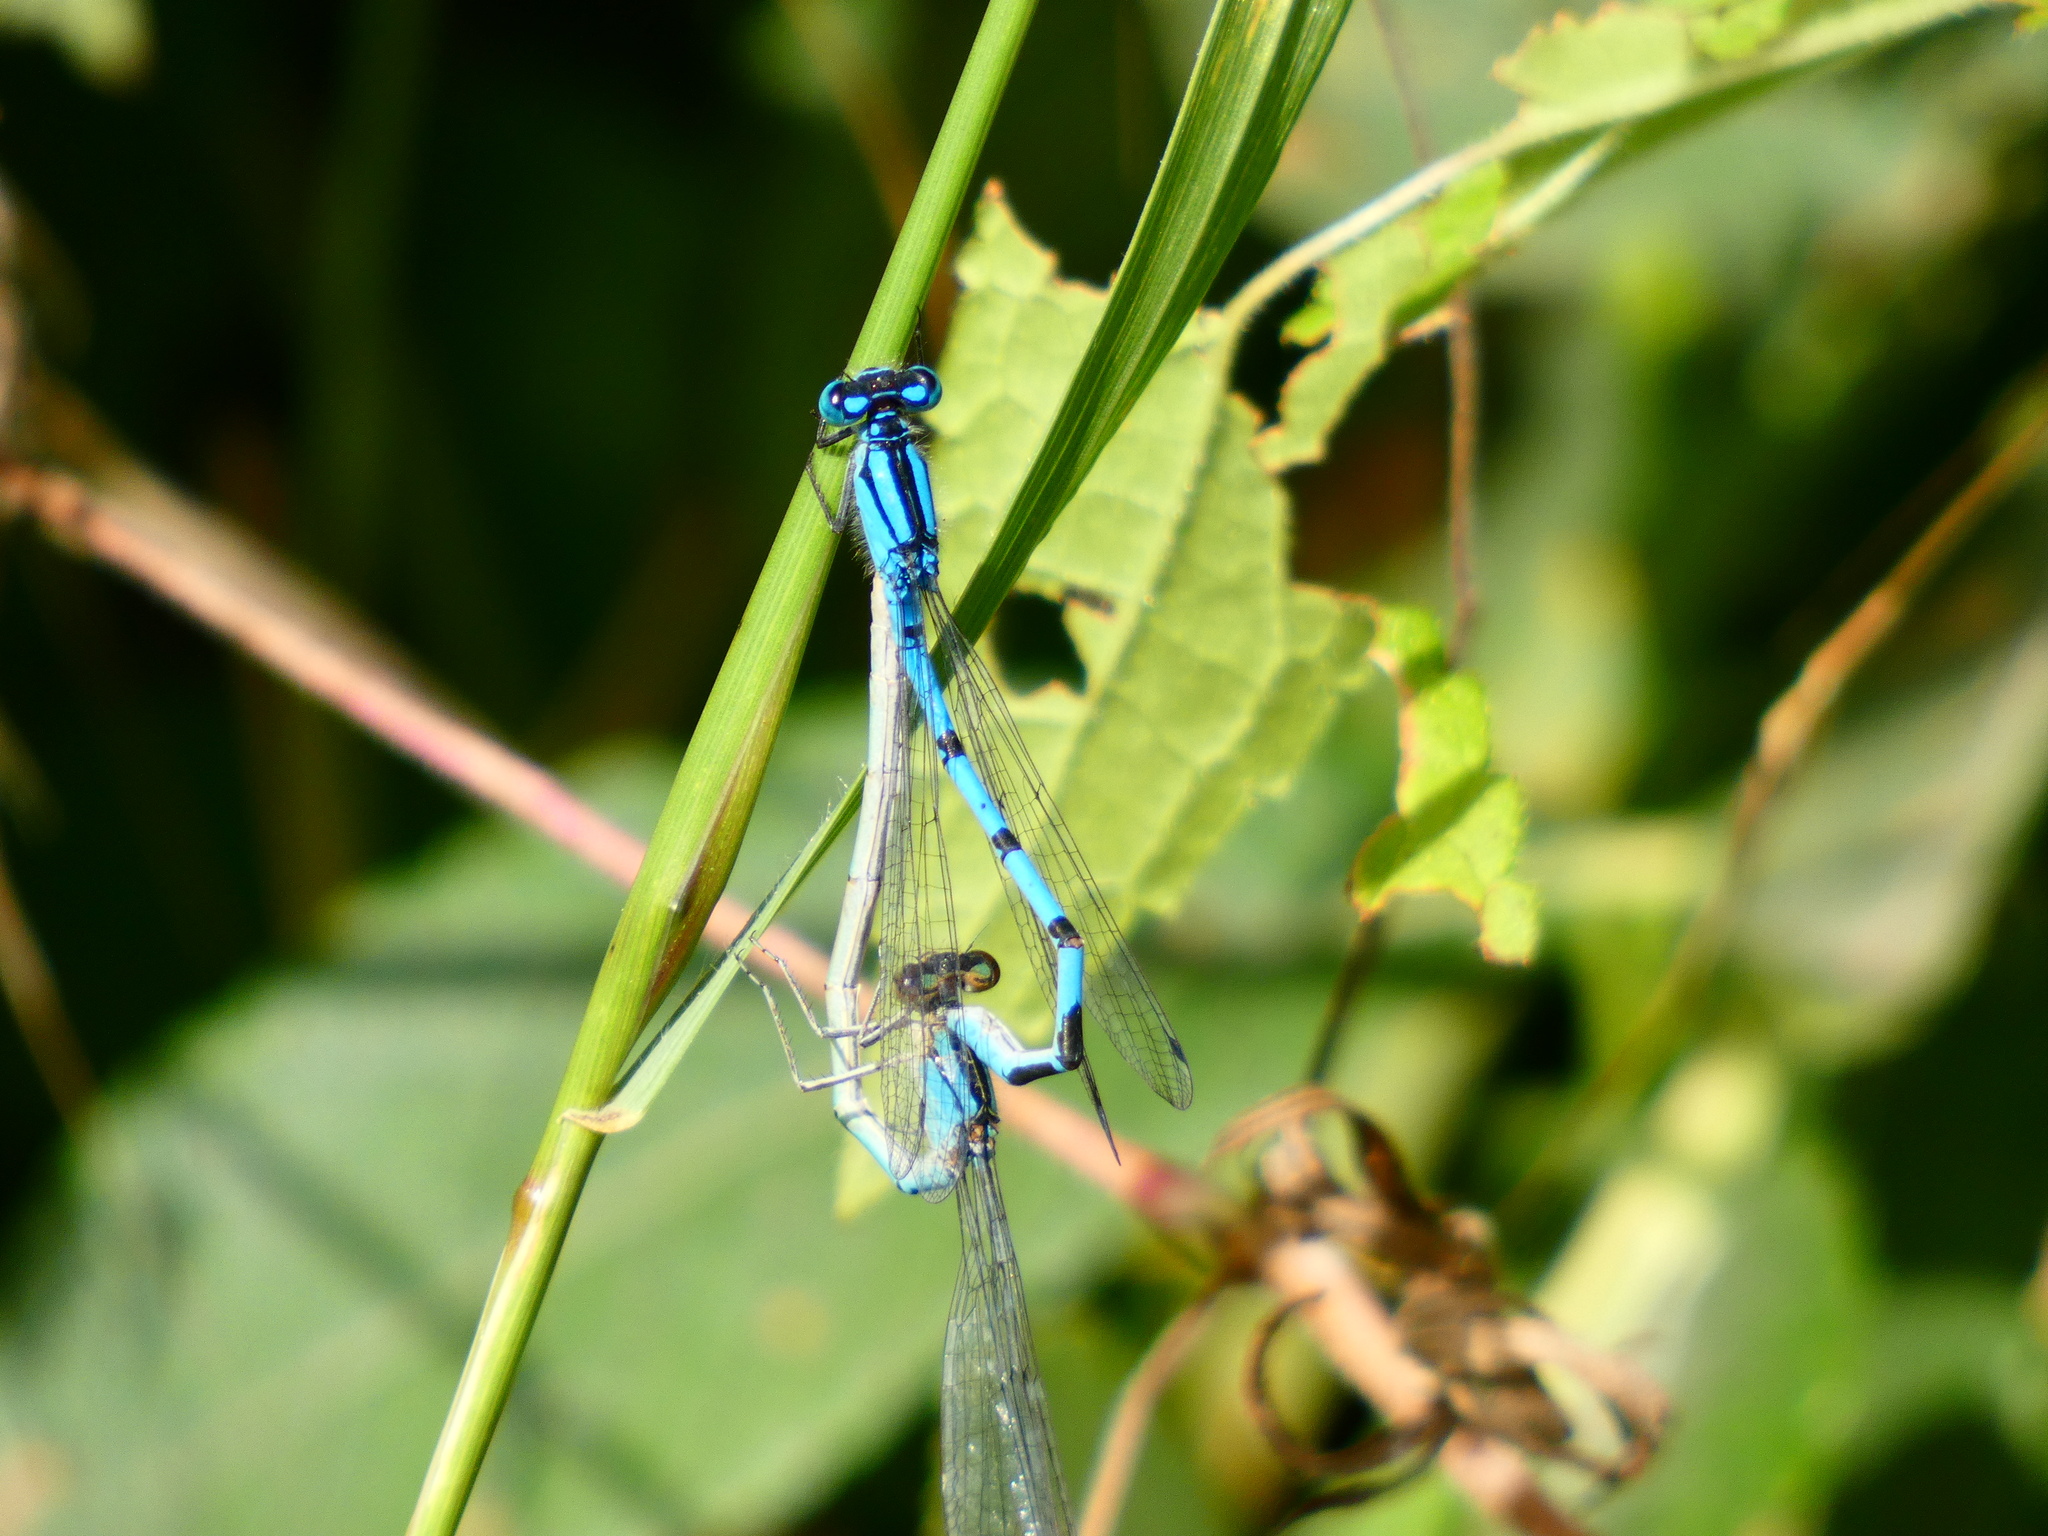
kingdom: Animalia
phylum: Arthropoda
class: Insecta
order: Odonata
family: Coenagrionidae
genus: Enallagma
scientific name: Enallagma cyathigerum
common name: Common blue damselfly
